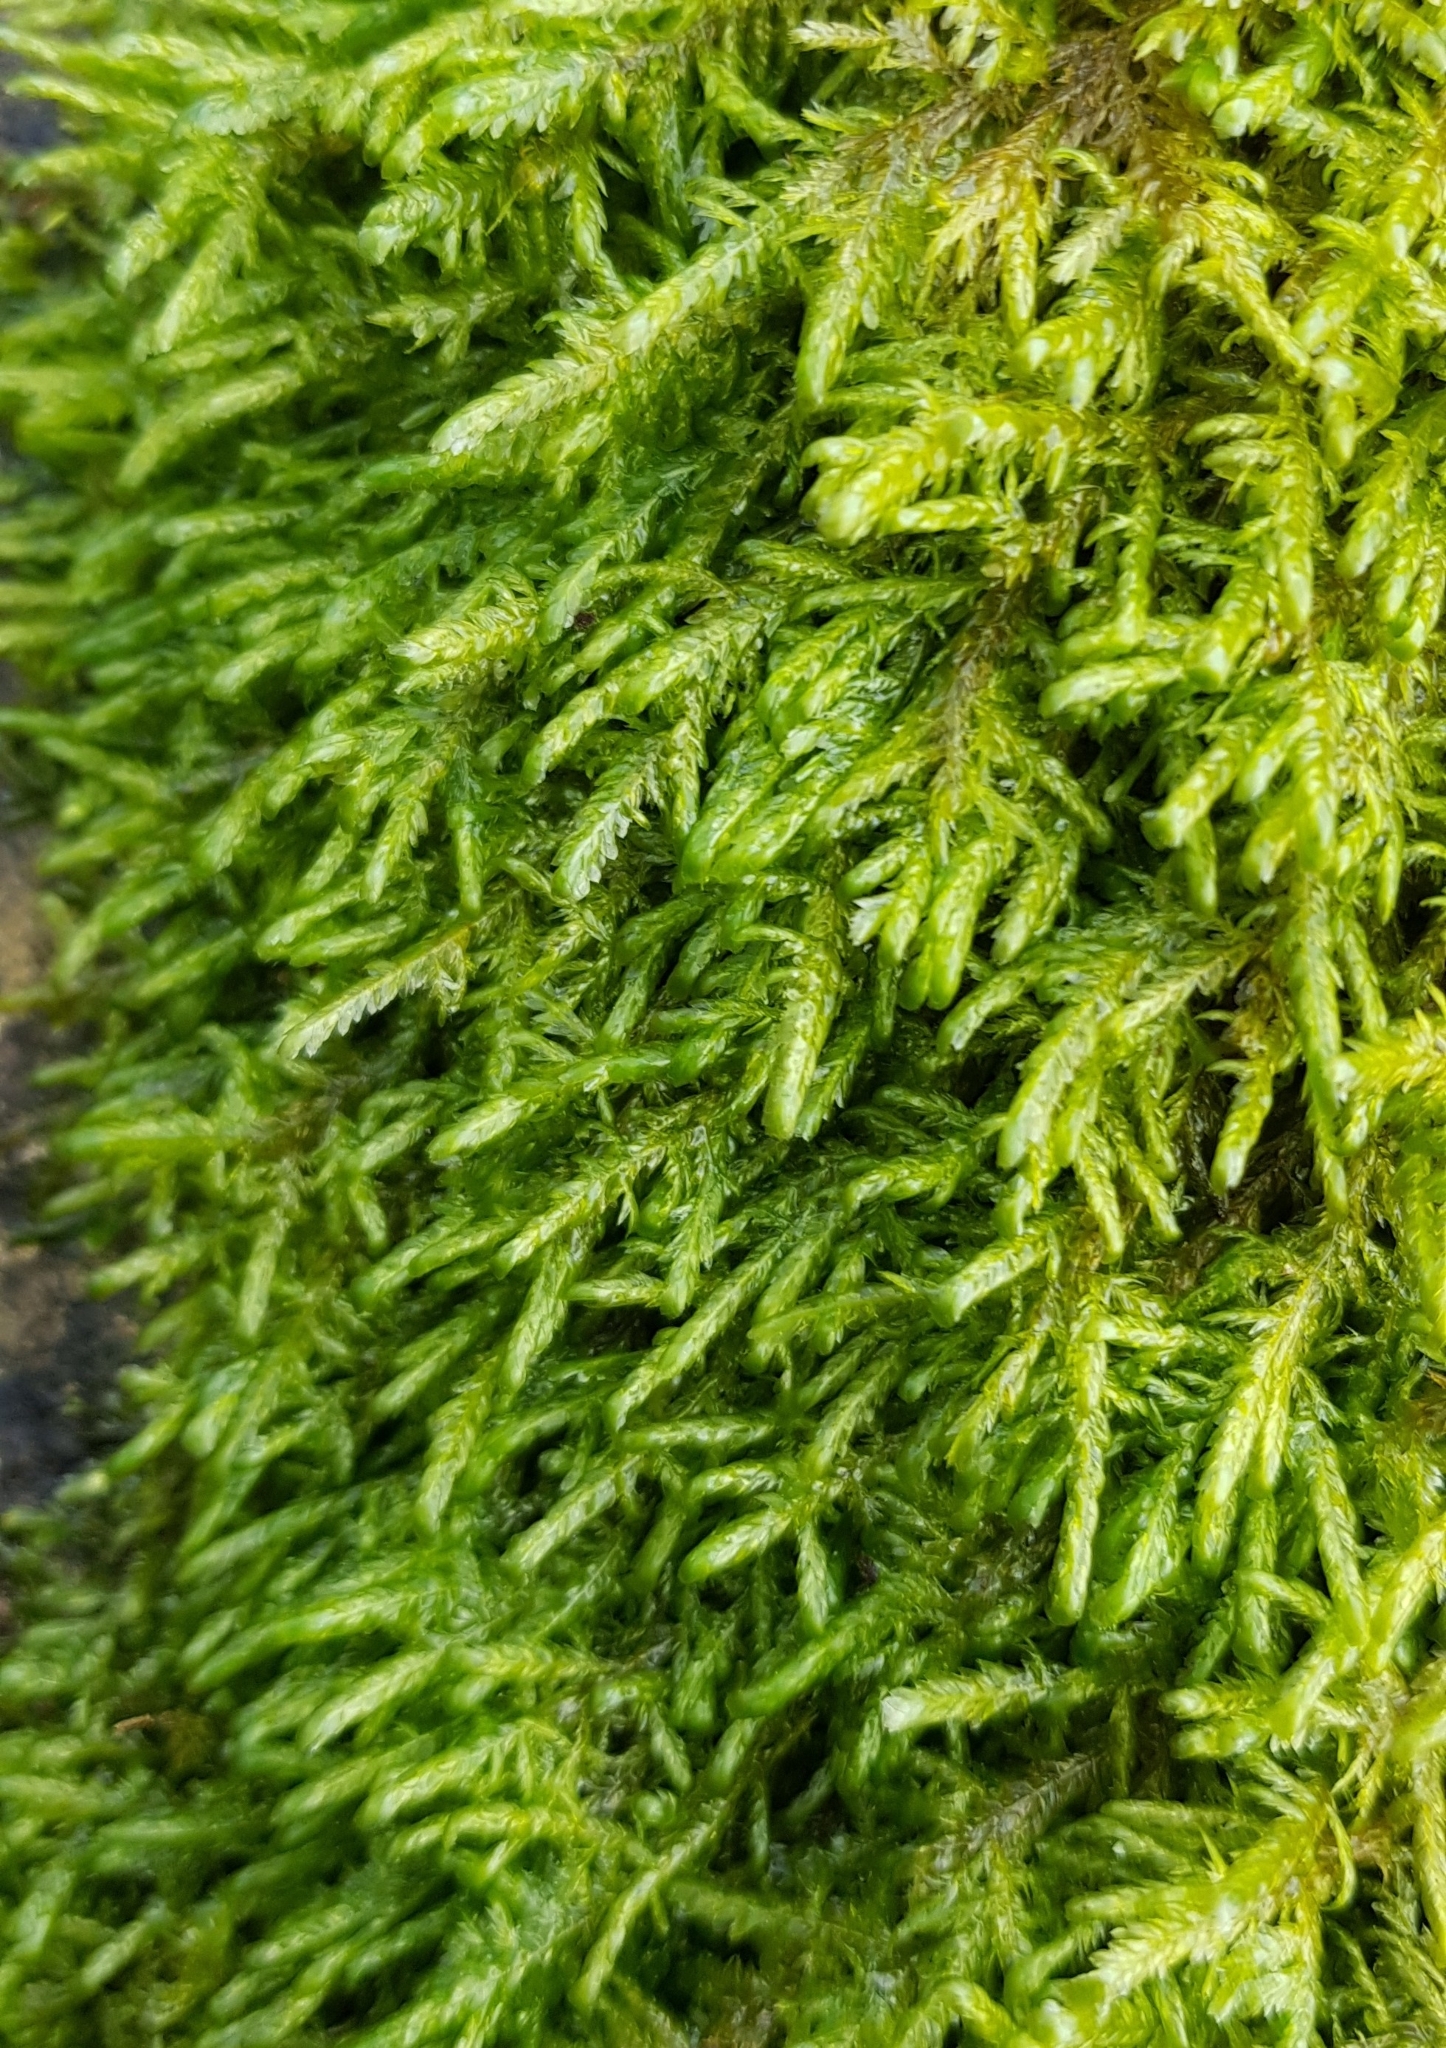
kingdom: Plantae
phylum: Bryophyta
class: Bryopsida
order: Hypnales
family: Neckeraceae
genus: Alleniella
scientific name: Alleniella complanata
